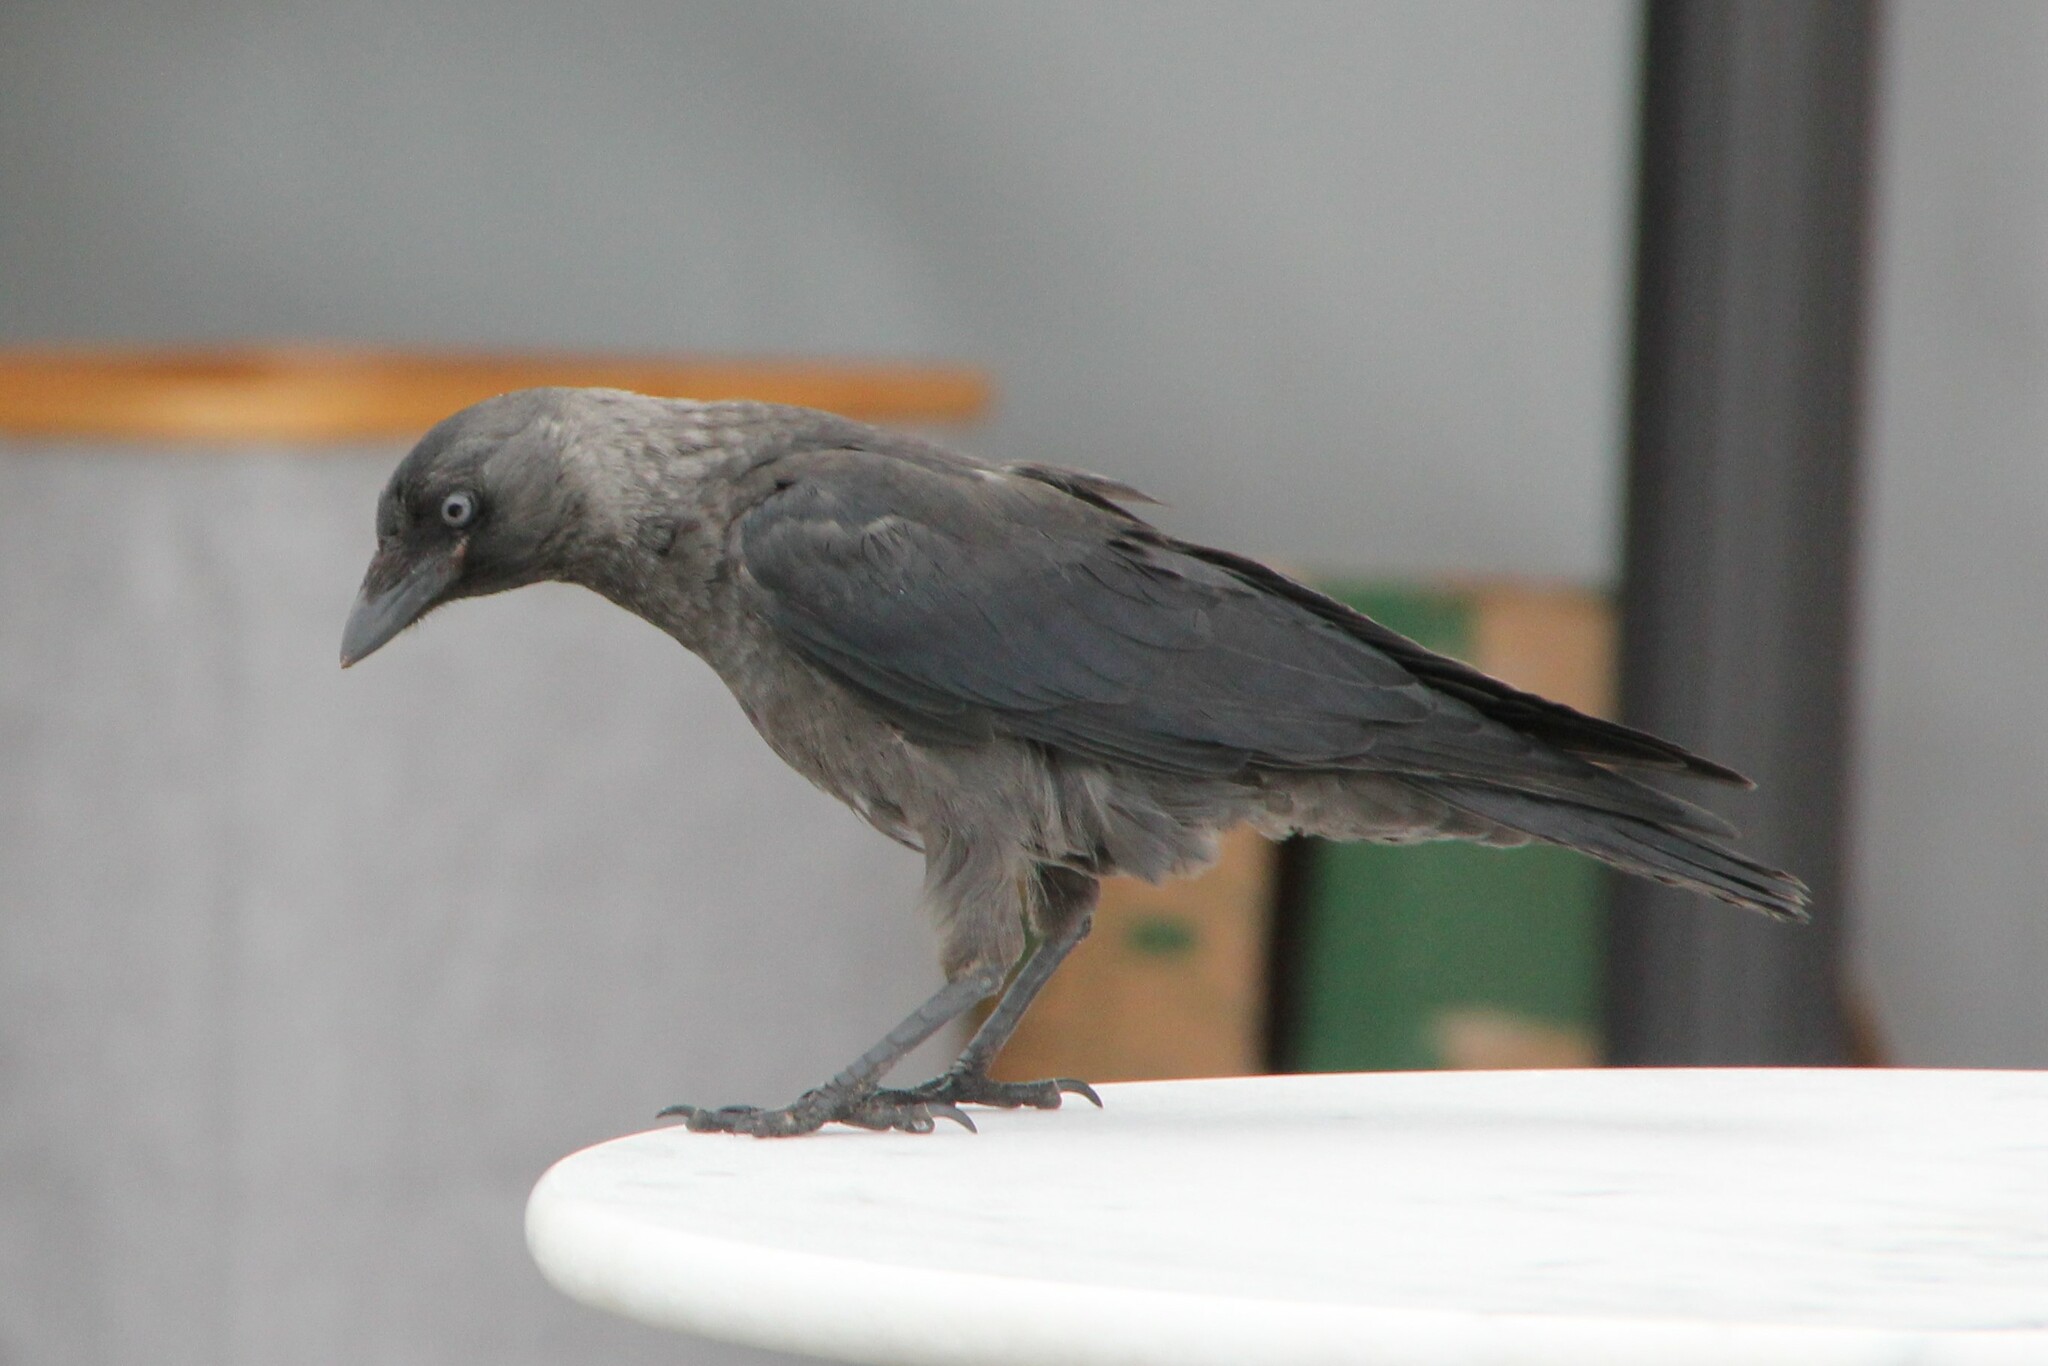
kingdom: Animalia
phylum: Chordata
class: Aves
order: Passeriformes
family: Corvidae
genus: Coloeus
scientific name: Coloeus monedula
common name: Western jackdaw
